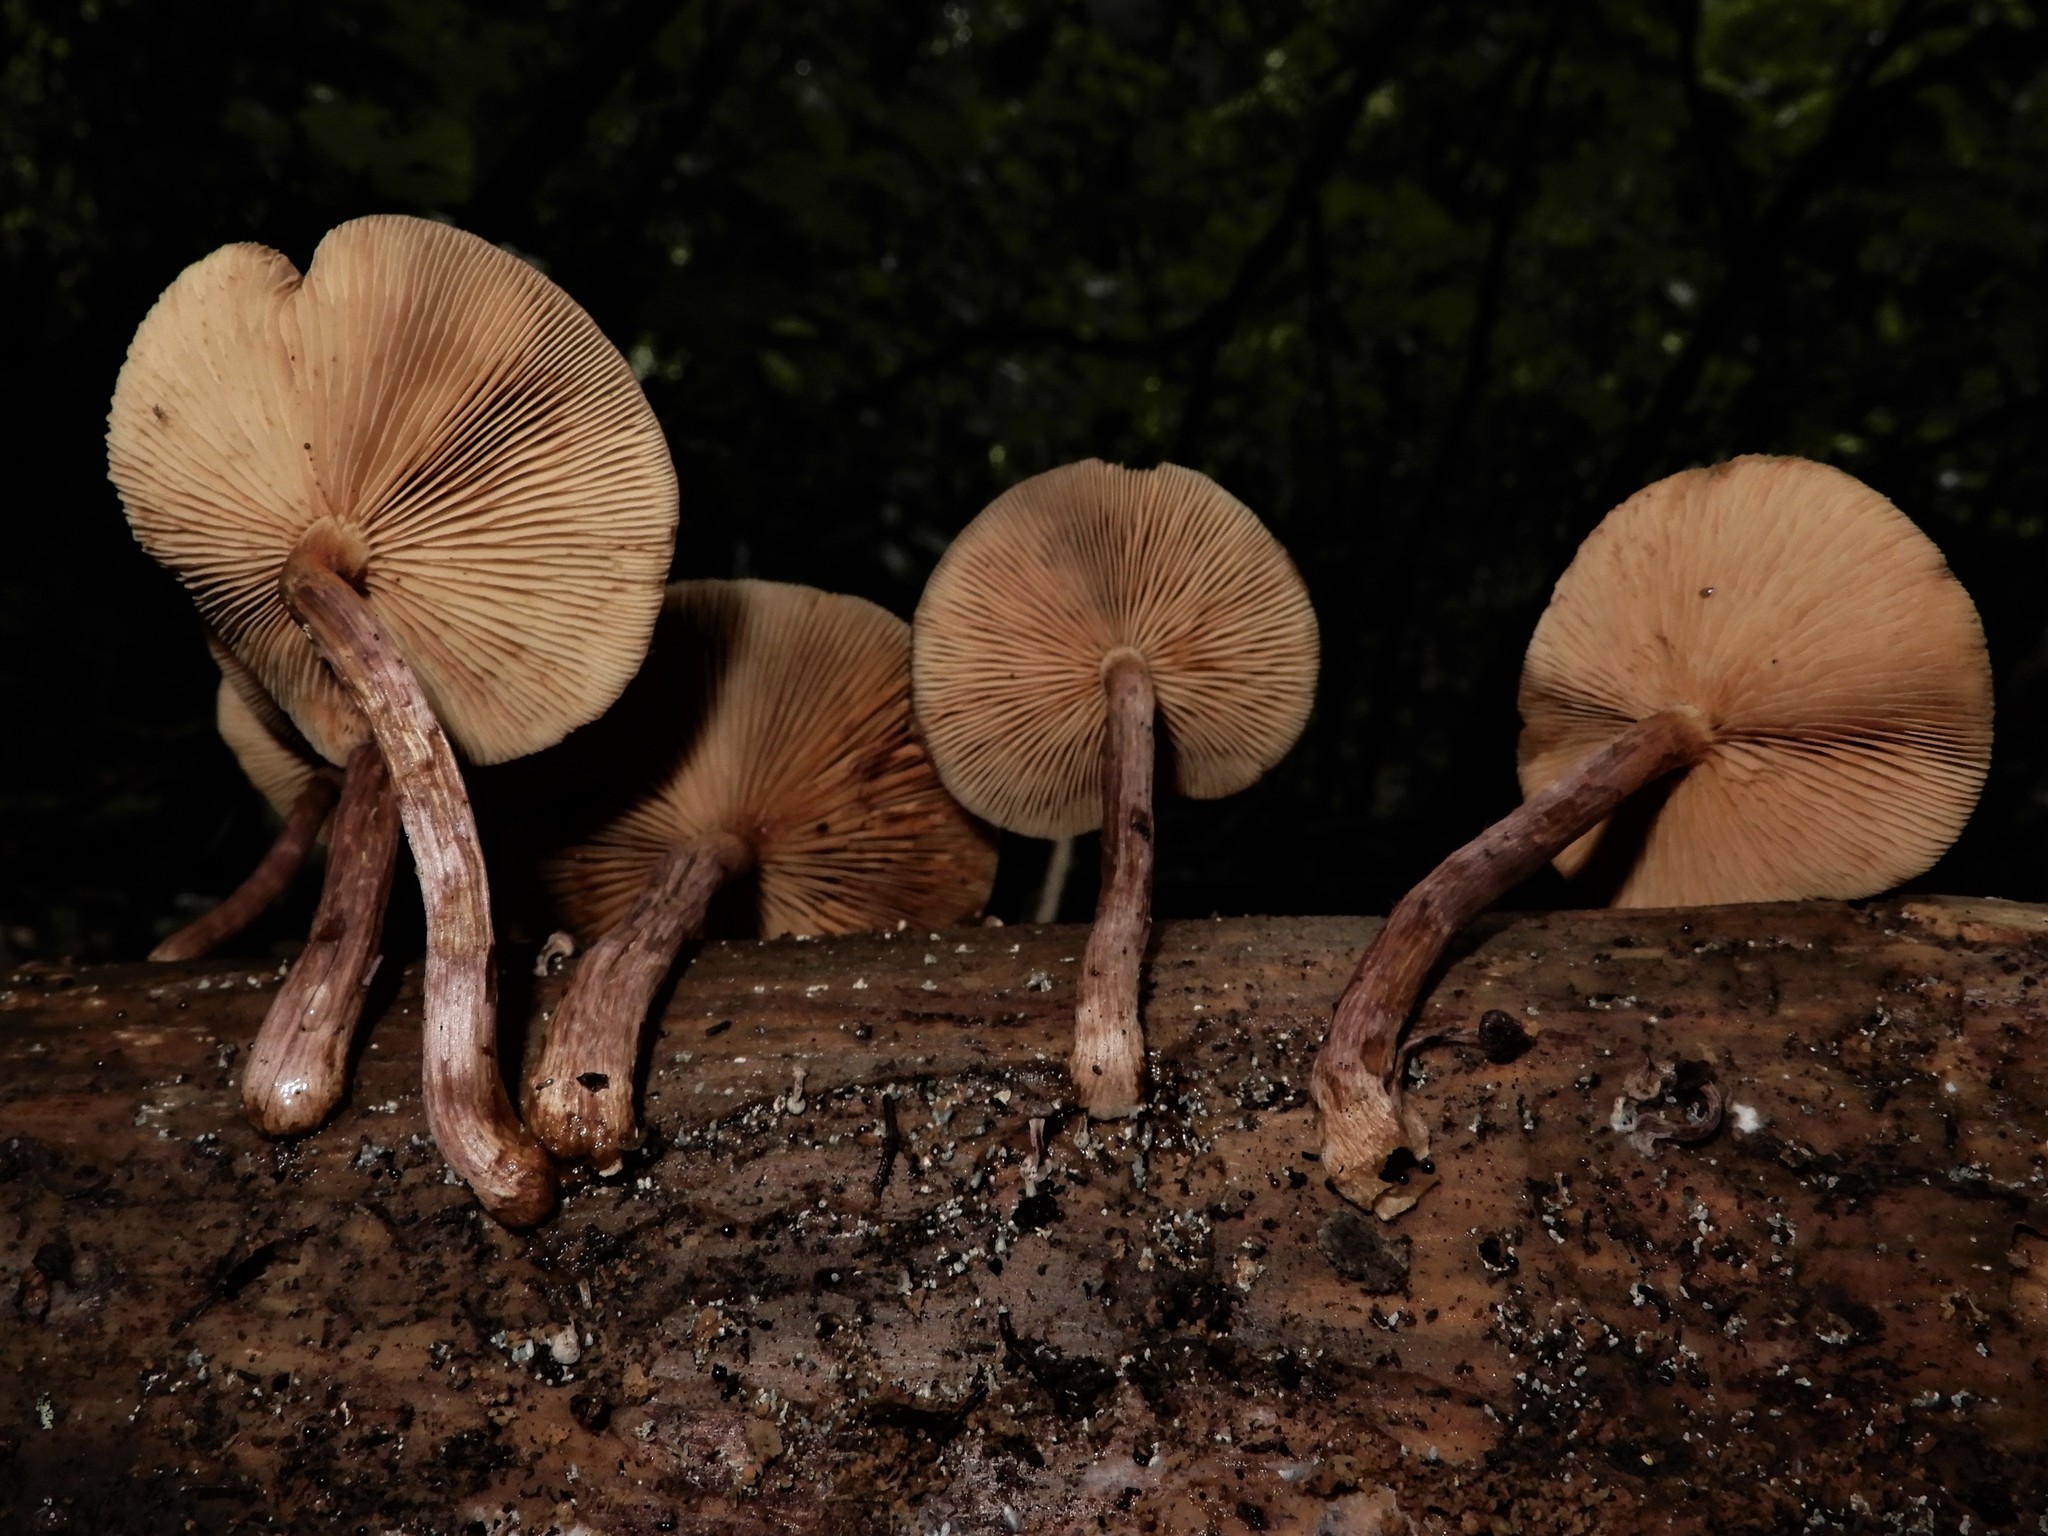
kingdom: Fungi
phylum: Basidiomycota
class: Agaricomycetes
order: Agaricales
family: Hymenogastraceae
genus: Gymnopilus
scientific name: Gymnopilus ferruginosus
